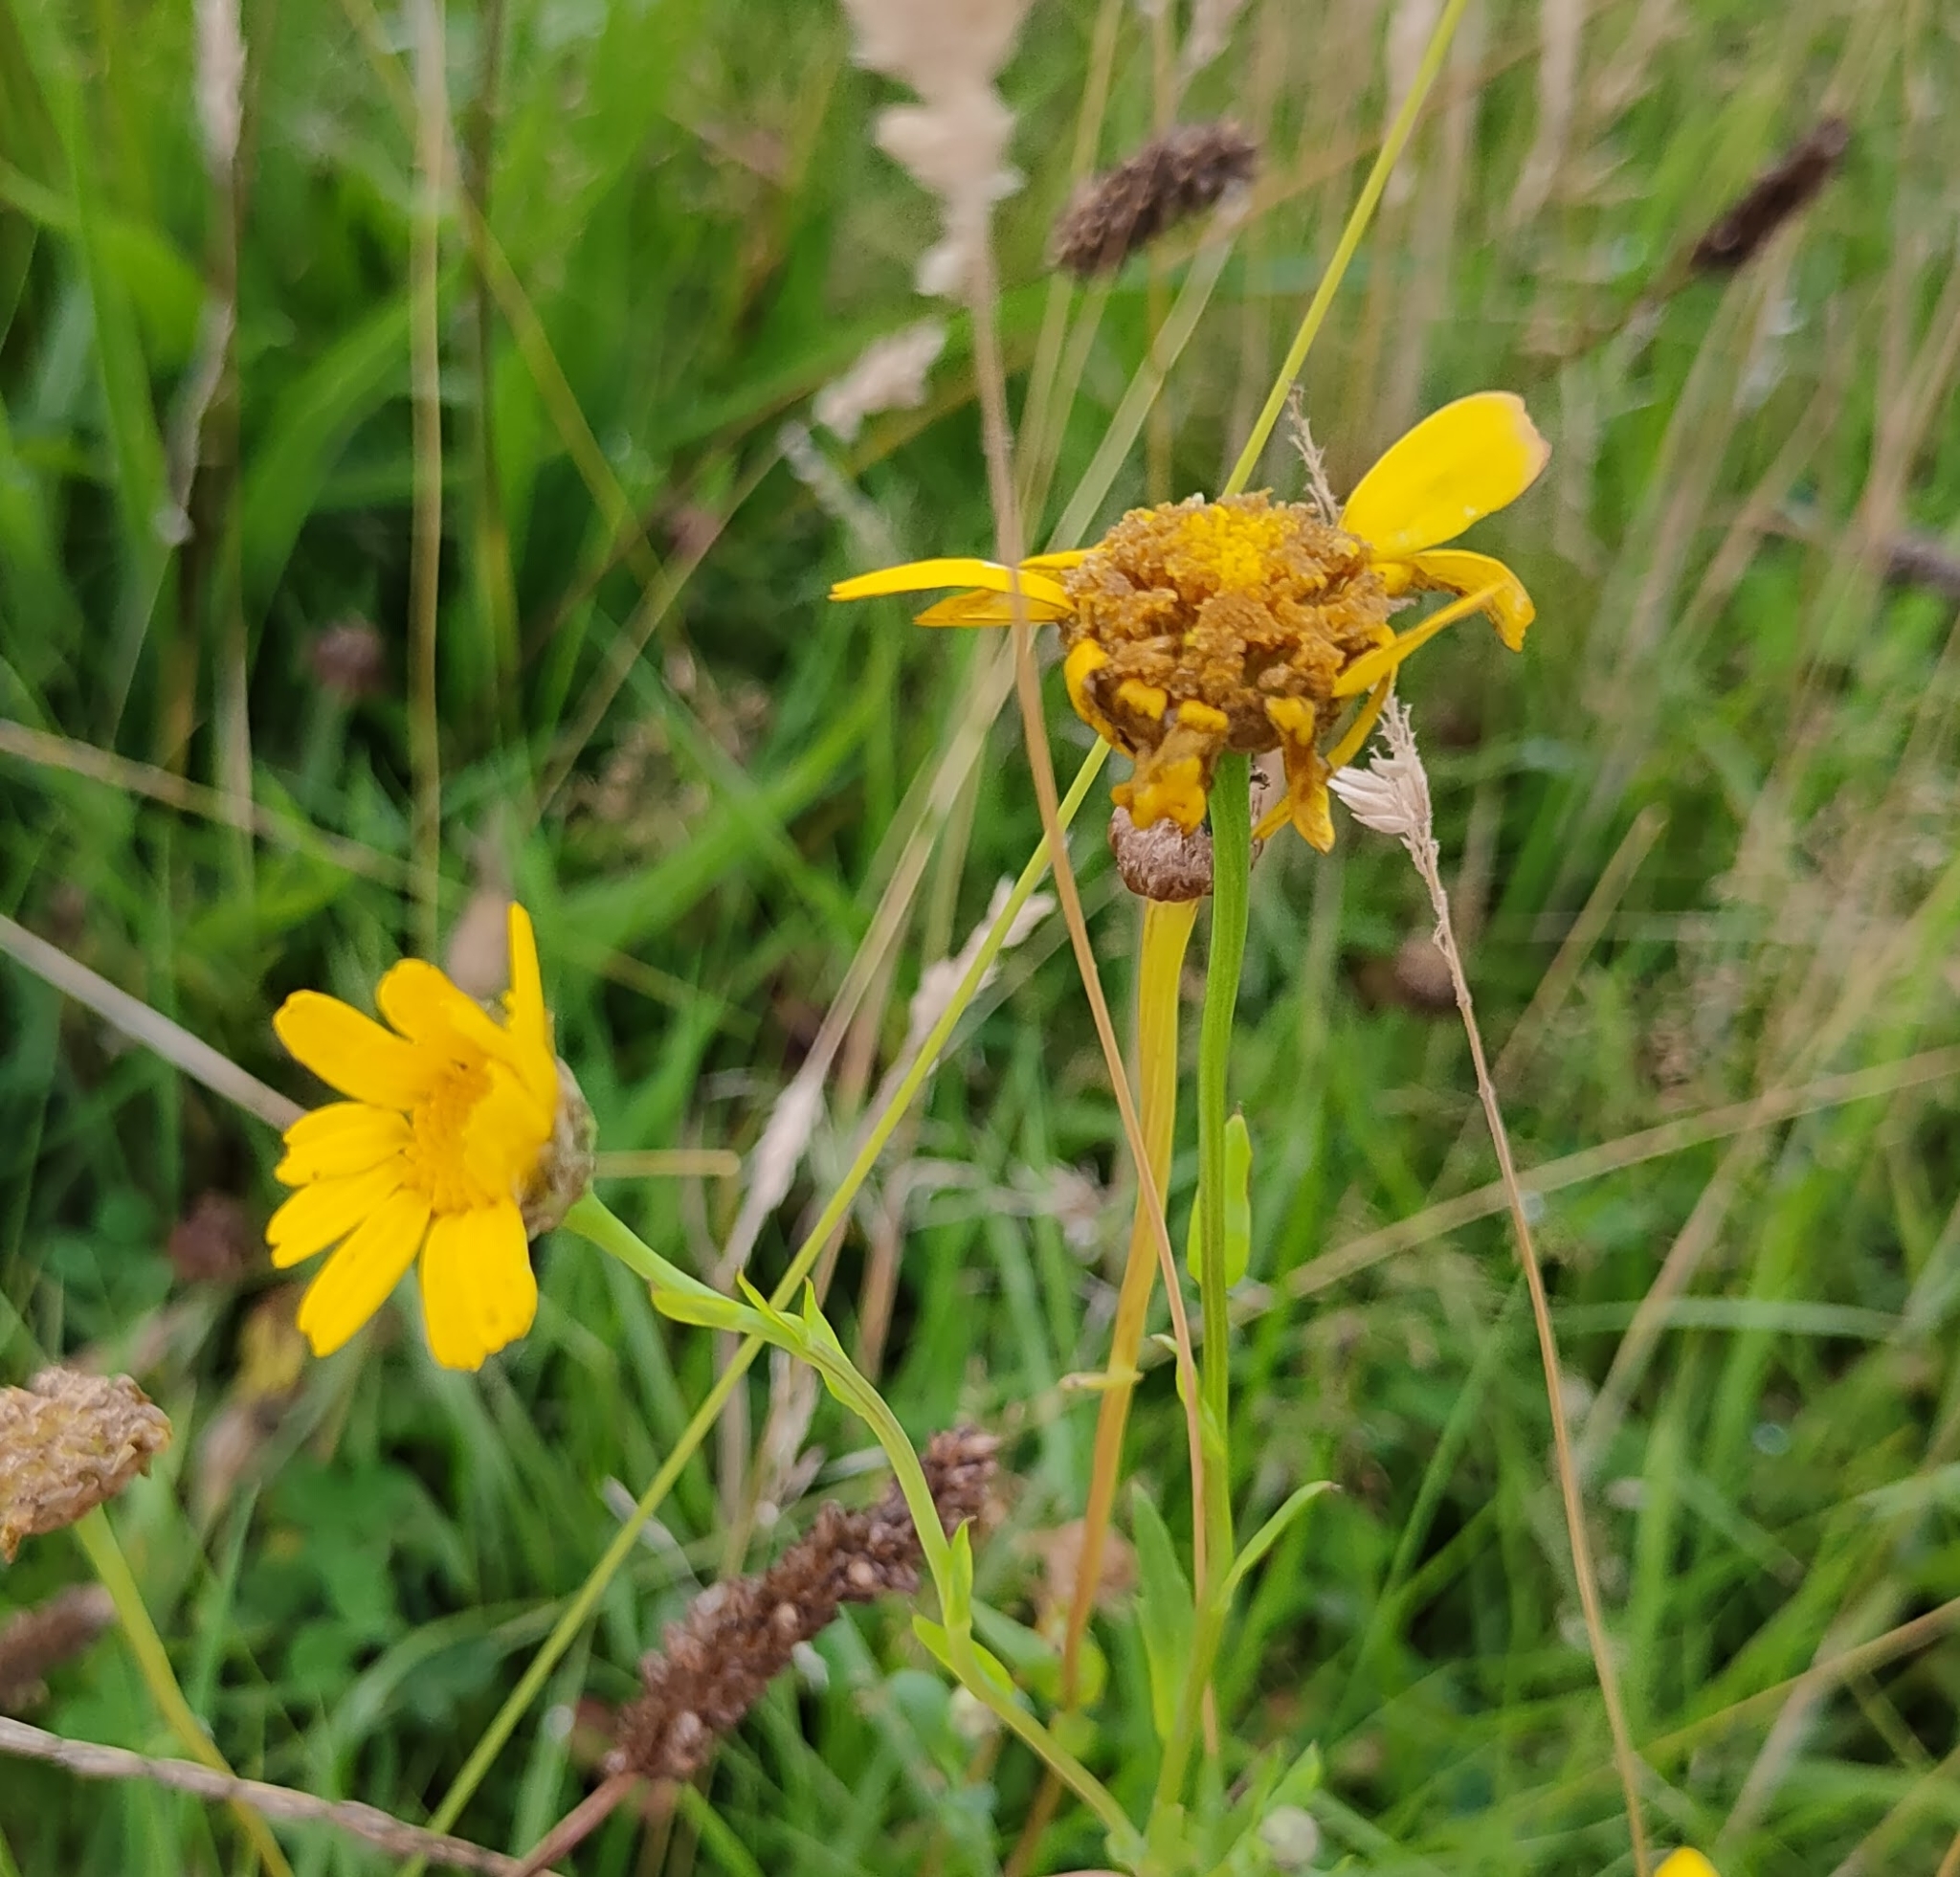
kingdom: Plantae
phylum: Tracheophyta
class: Magnoliopsida
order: Asterales
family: Asteraceae
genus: Glebionis
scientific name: Glebionis segetum
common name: Corndaisy
